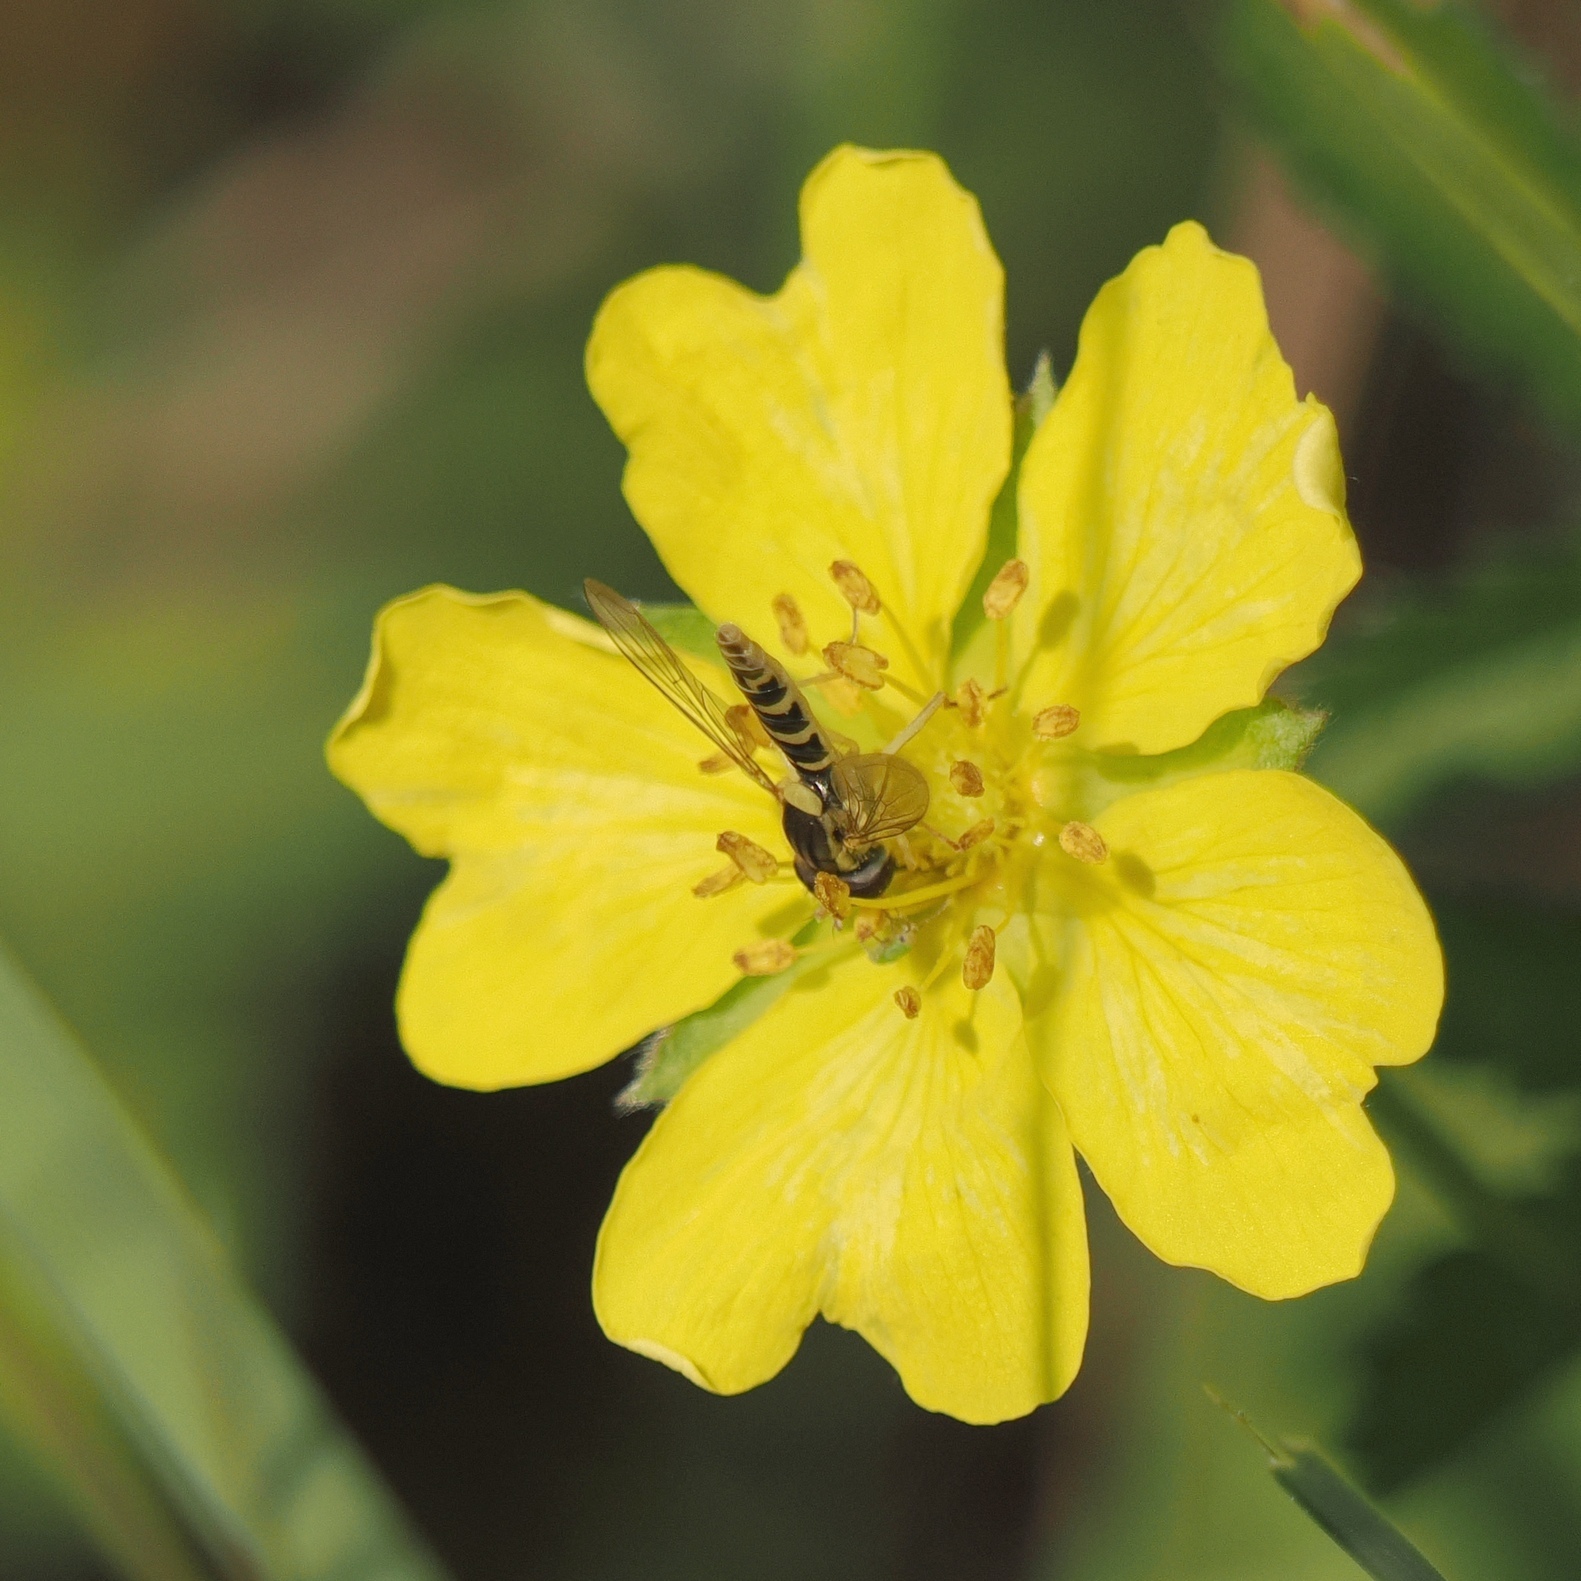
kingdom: Animalia
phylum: Arthropoda
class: Insecta
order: Diptera
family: Syrphidae
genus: Sphaerophoria
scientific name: Sphaerophoria
